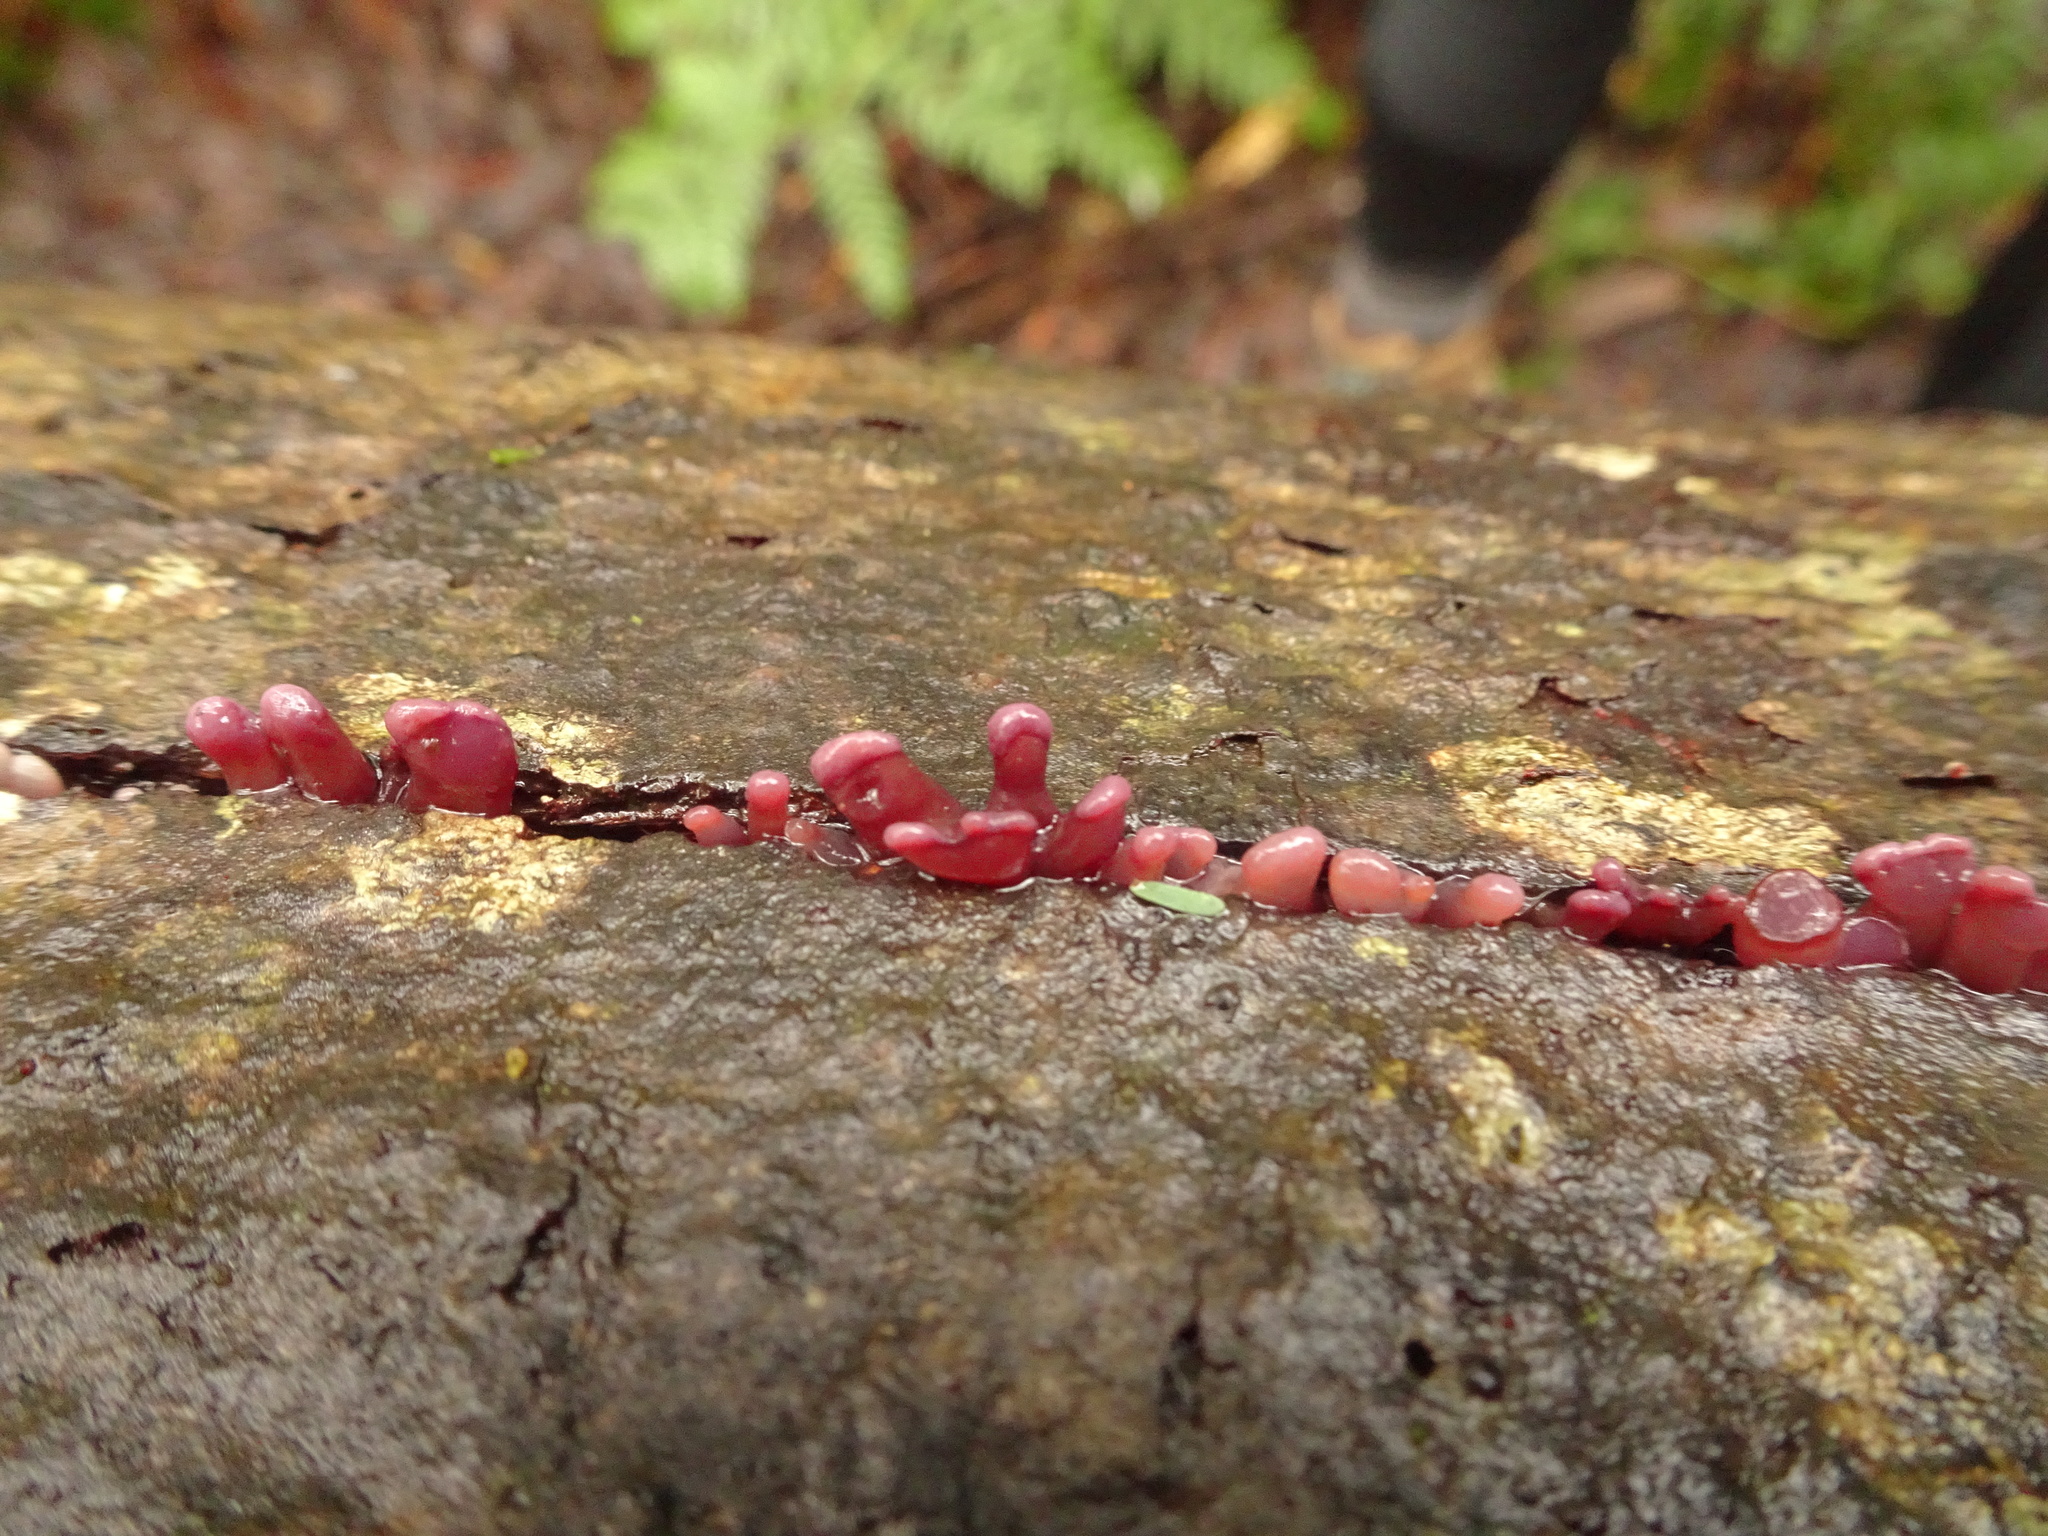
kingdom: Fungi
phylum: Ascomycota
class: Leotiomycetes
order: Helotiales
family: Gelatinodiscaceae
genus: Ascocoryne
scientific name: Ascocoryne sarcoides
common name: Purple jellydisc
